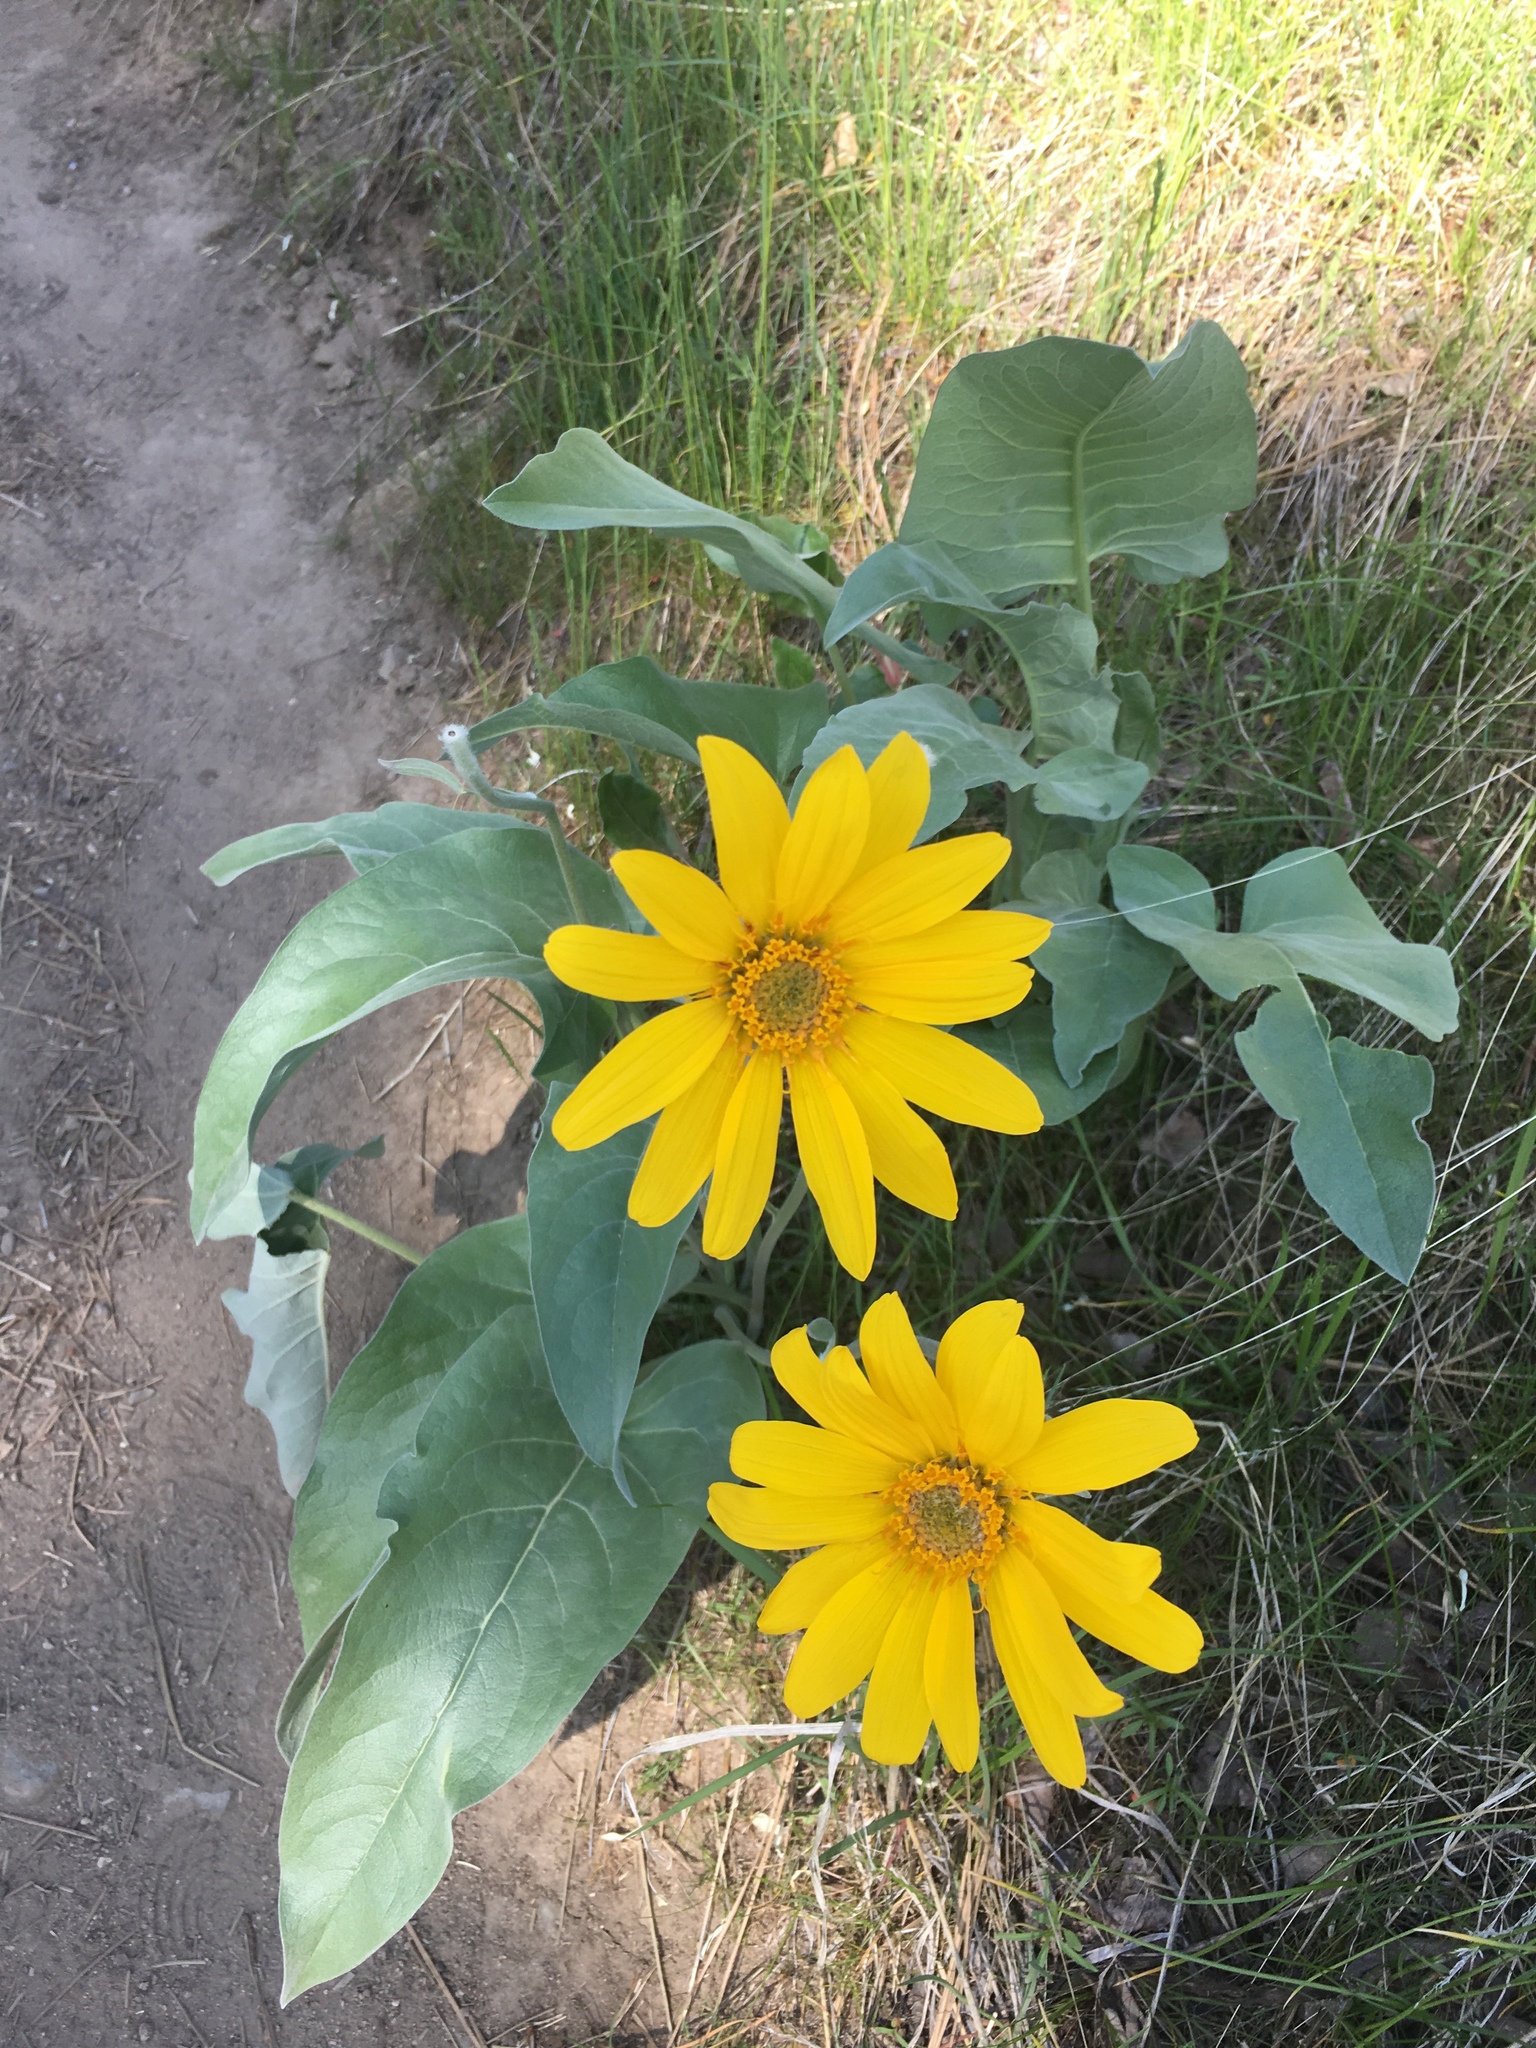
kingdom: Plantae
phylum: Tracheophyta
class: Magnoliopsida
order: Asterales
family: Asteraceae
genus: Wyethia
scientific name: Wyethia sagittata
